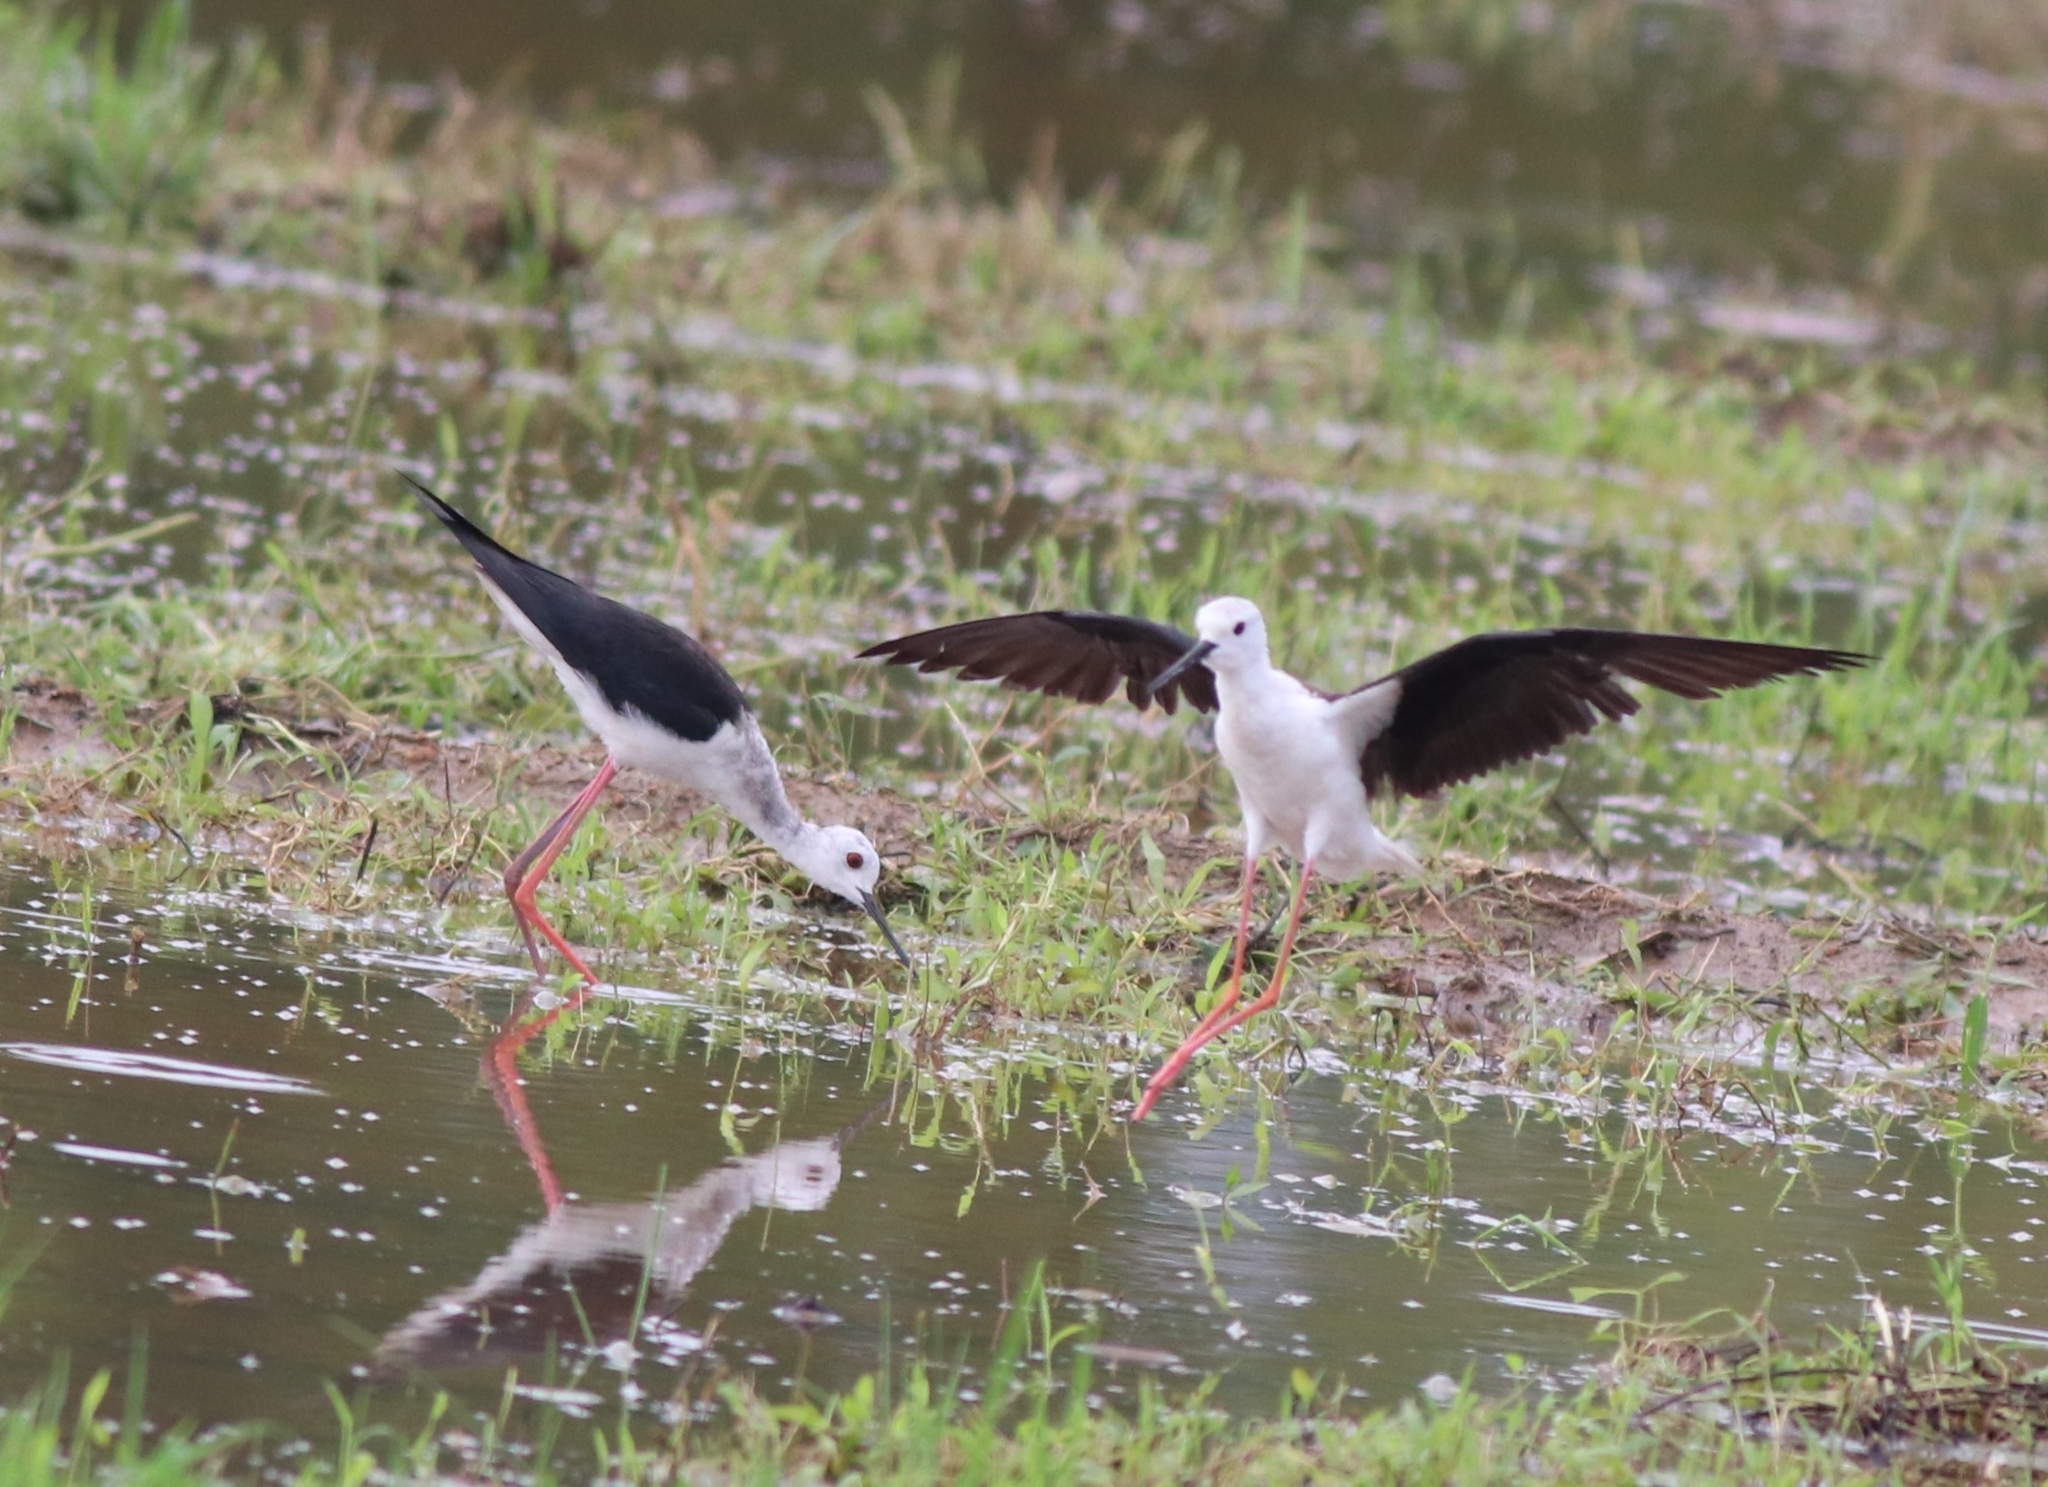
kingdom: Animalia
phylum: Chordata
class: Aves
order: Charadriiformes
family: Recurvirostridae
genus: Himantopus
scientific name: Himantopus himantopus
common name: Black-winged stilt
